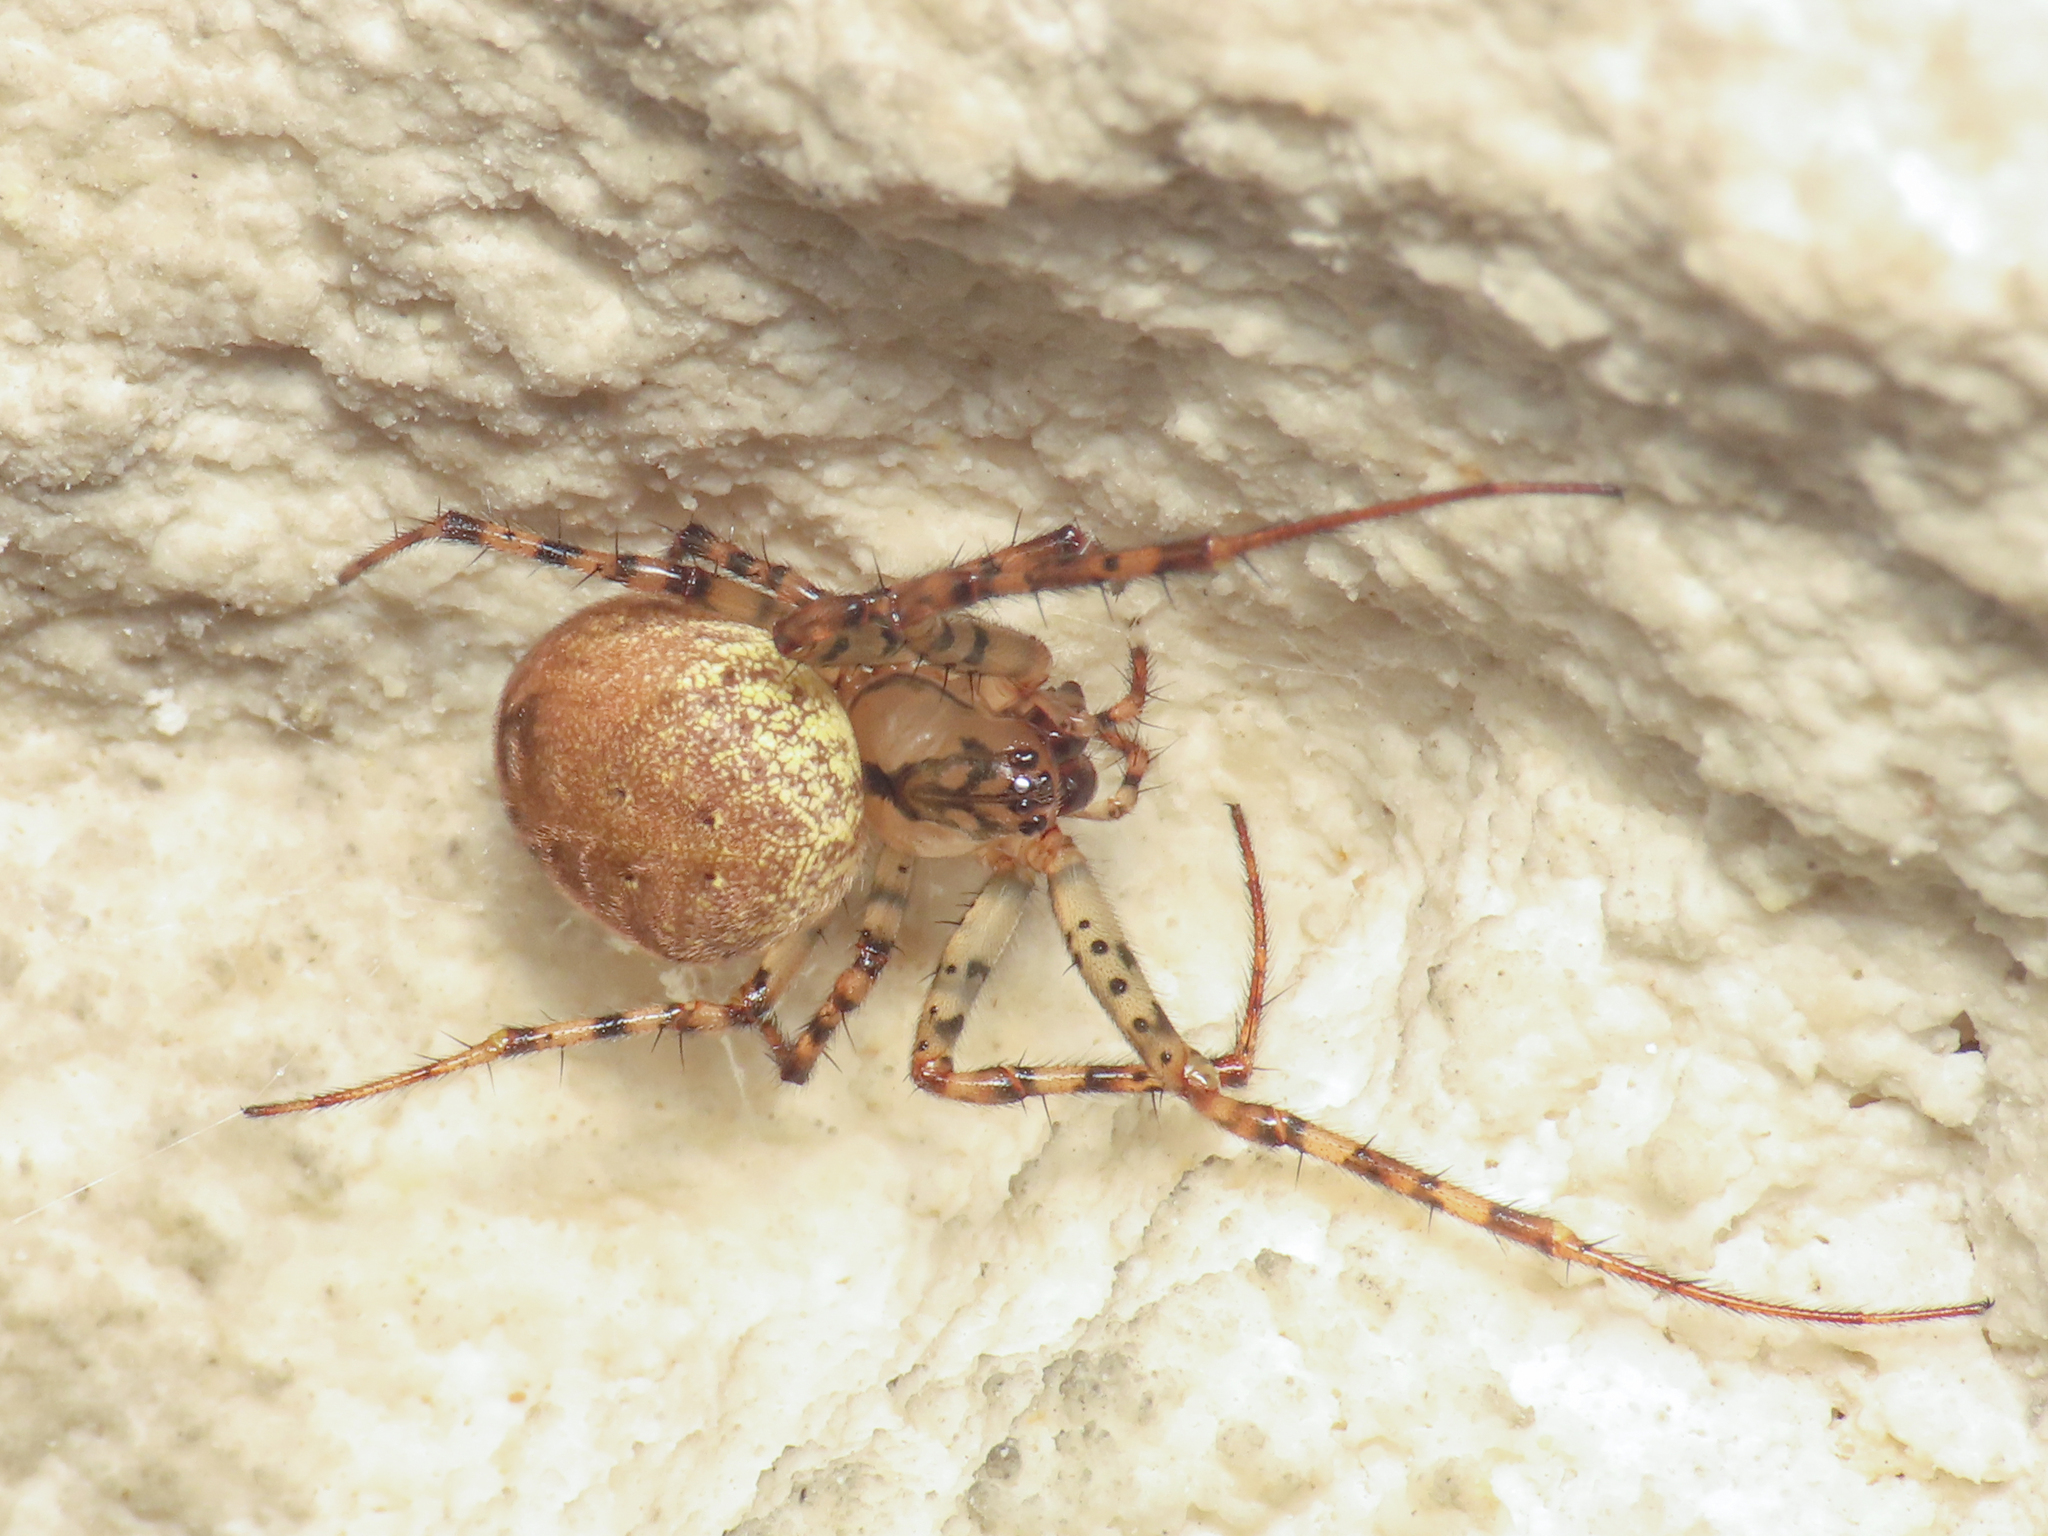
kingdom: Animalia
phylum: Arthropoda
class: Arachnida
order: Araneae
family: Tetragnathidae
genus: Metellina
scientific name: Metellina merianae
